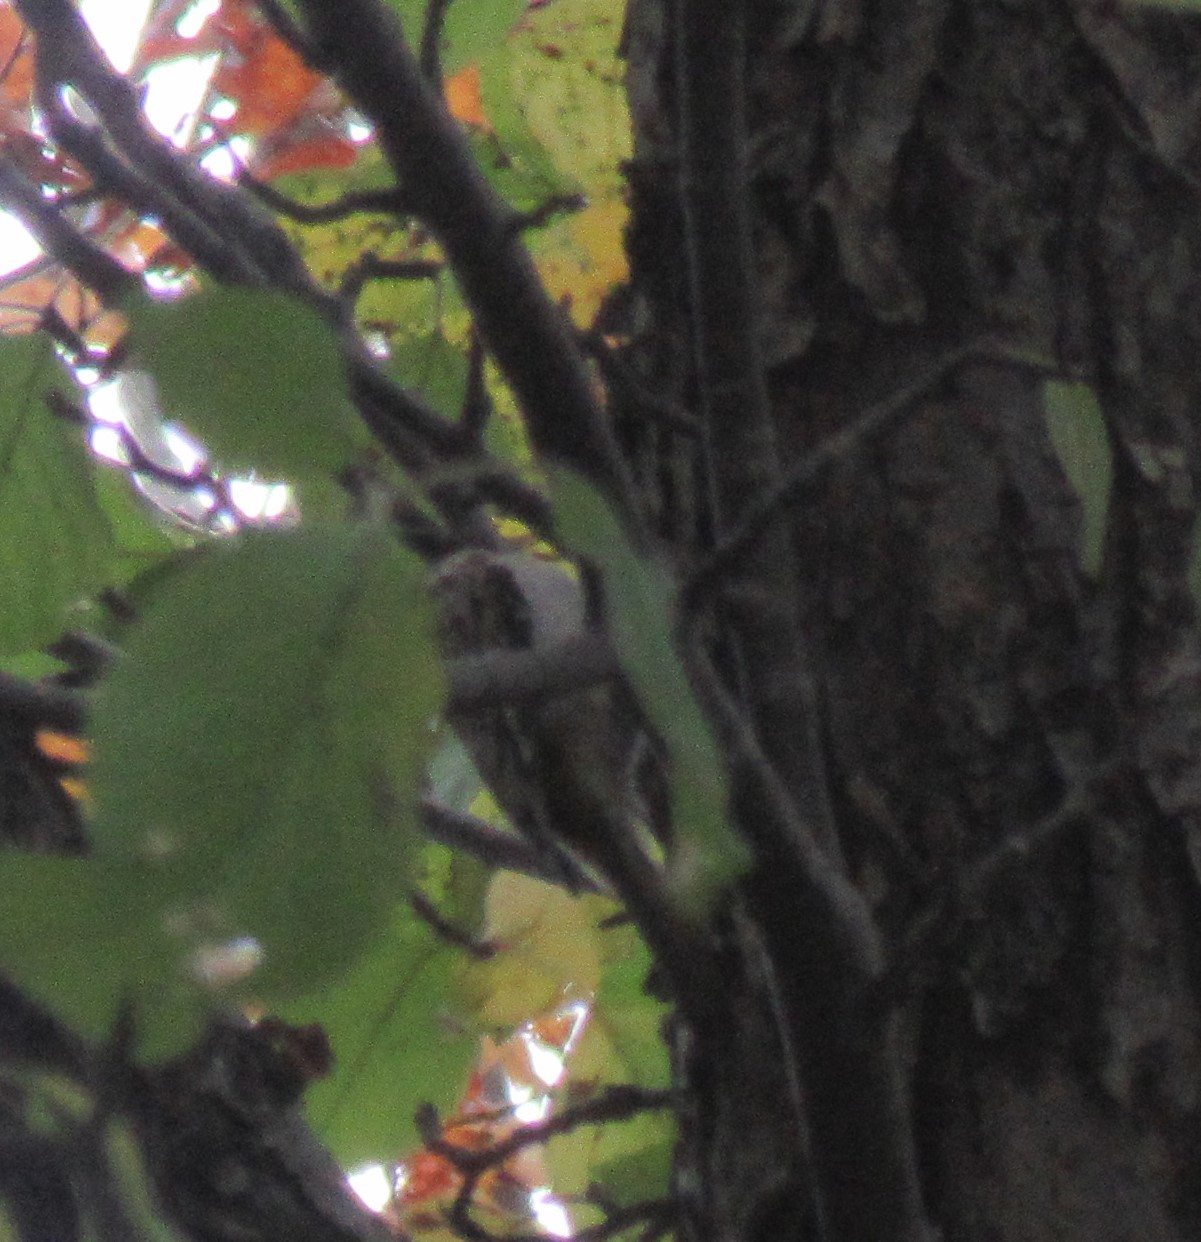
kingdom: Animalia
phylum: Chordata
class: Aves
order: Passeriformes
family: Certhiidae
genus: Certhia
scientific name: Certhia americana
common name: Brown creeper
